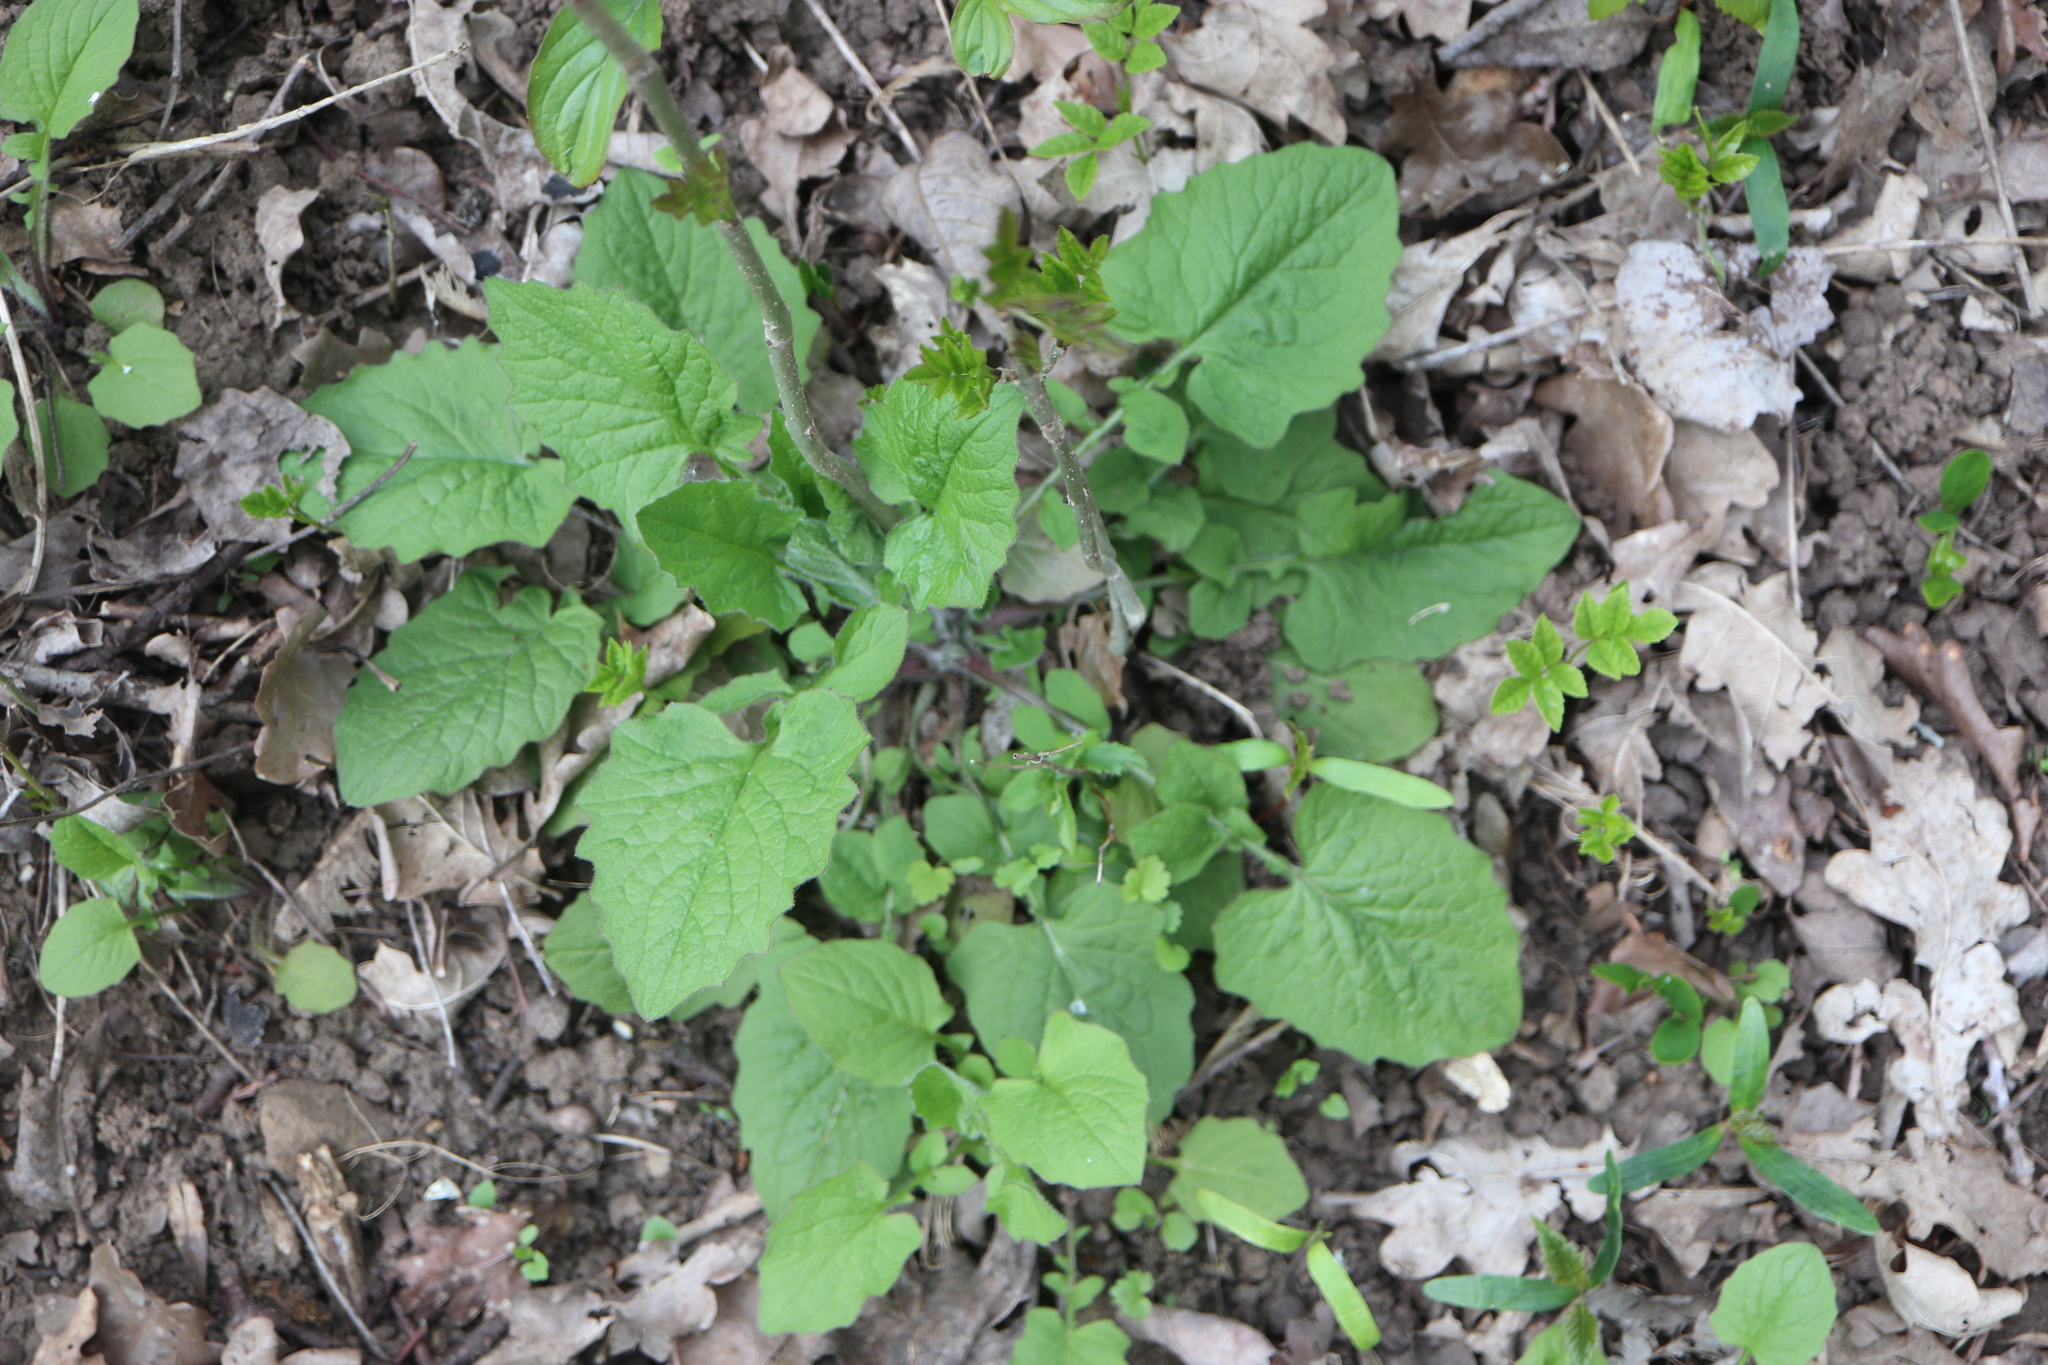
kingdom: Plantae
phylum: Tracheophyta
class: Magnoliopsida
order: Asterales
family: Asteraceae
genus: Lapsana
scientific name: Lapsana communis
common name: Nipplewort
